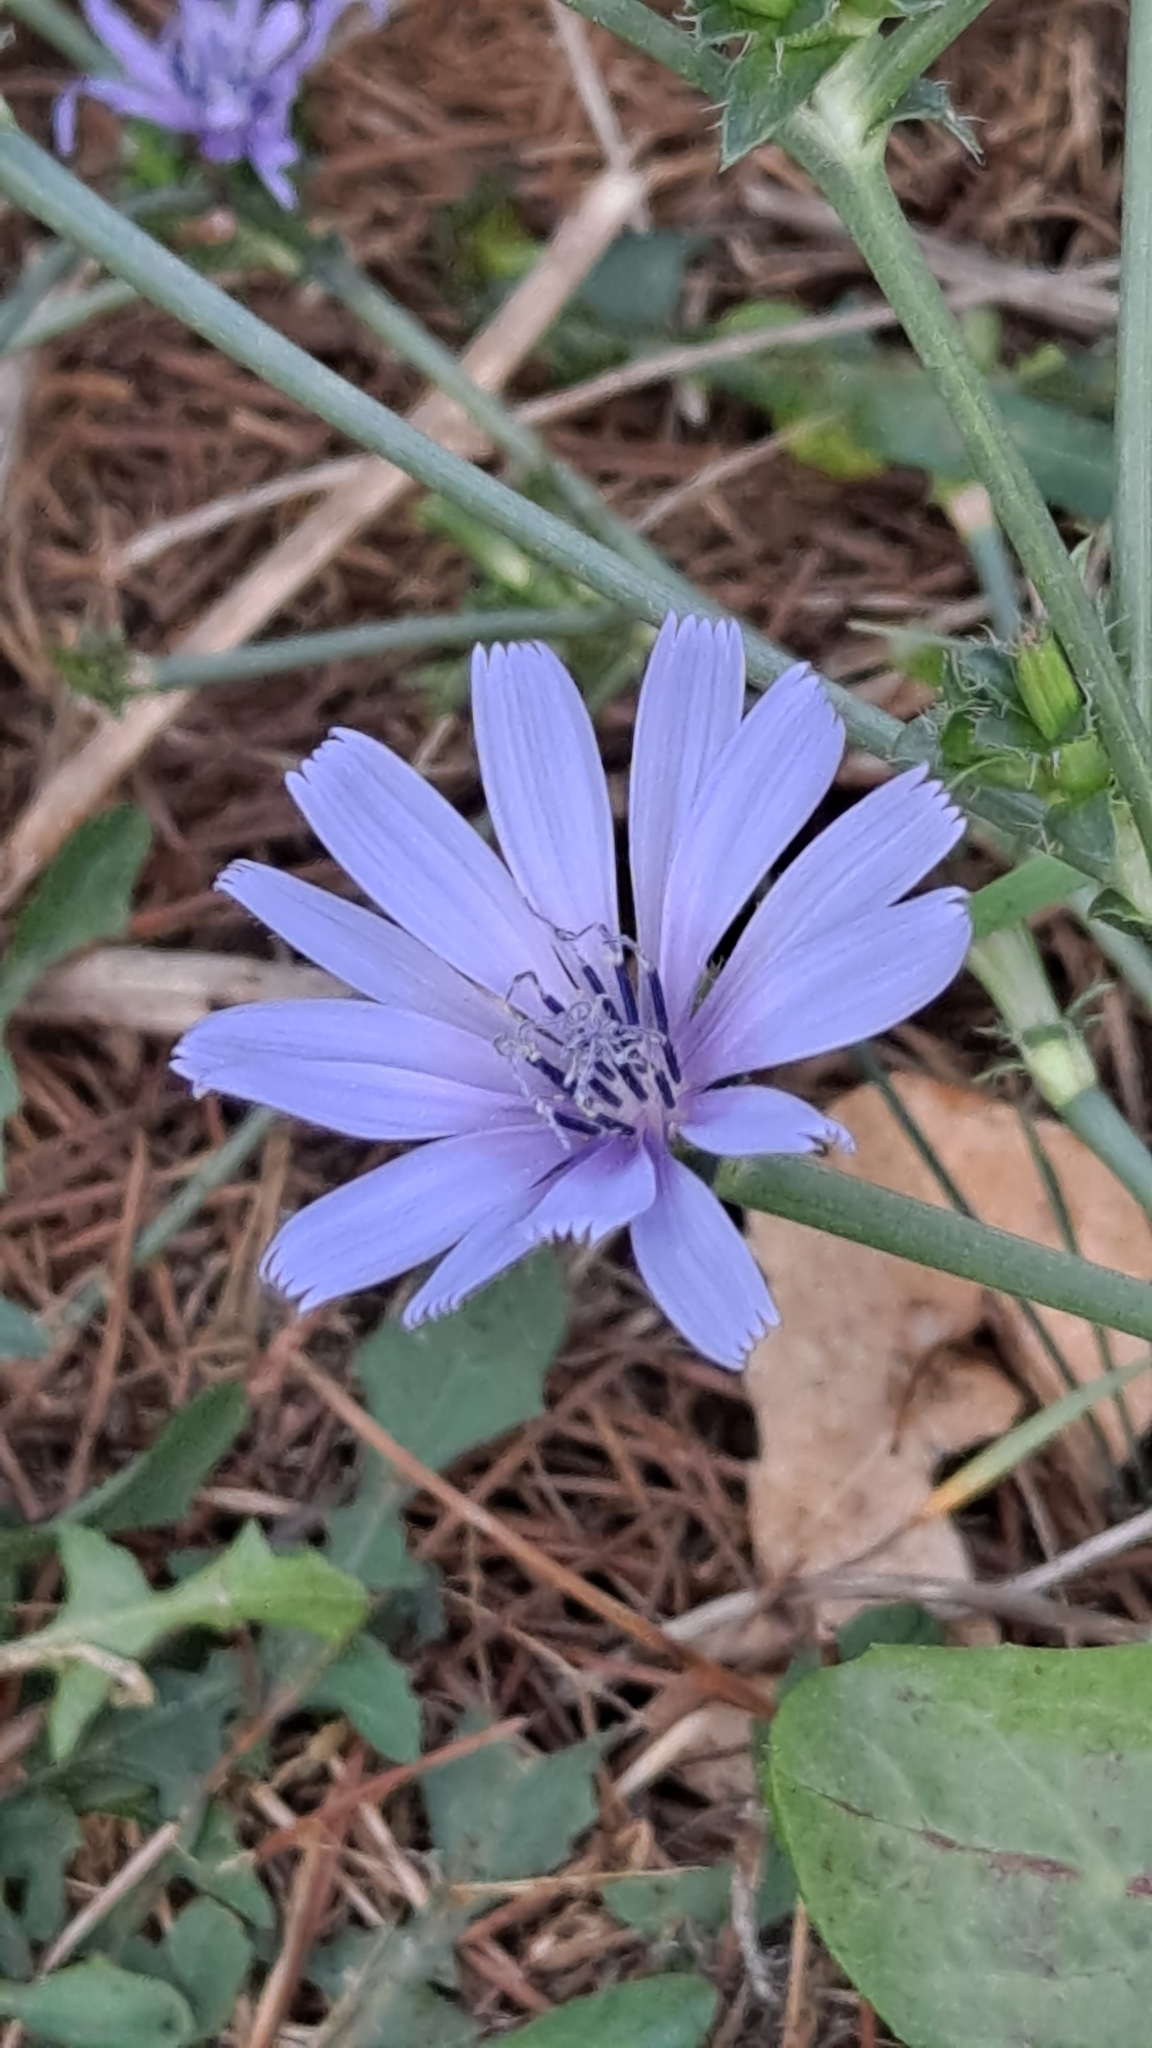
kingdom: Plantae
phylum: Tracheophyta
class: Magnoliopsida
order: Asterales
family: Asteraceae
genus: Cichorium
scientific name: Cichorium intybus
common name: Chicory
